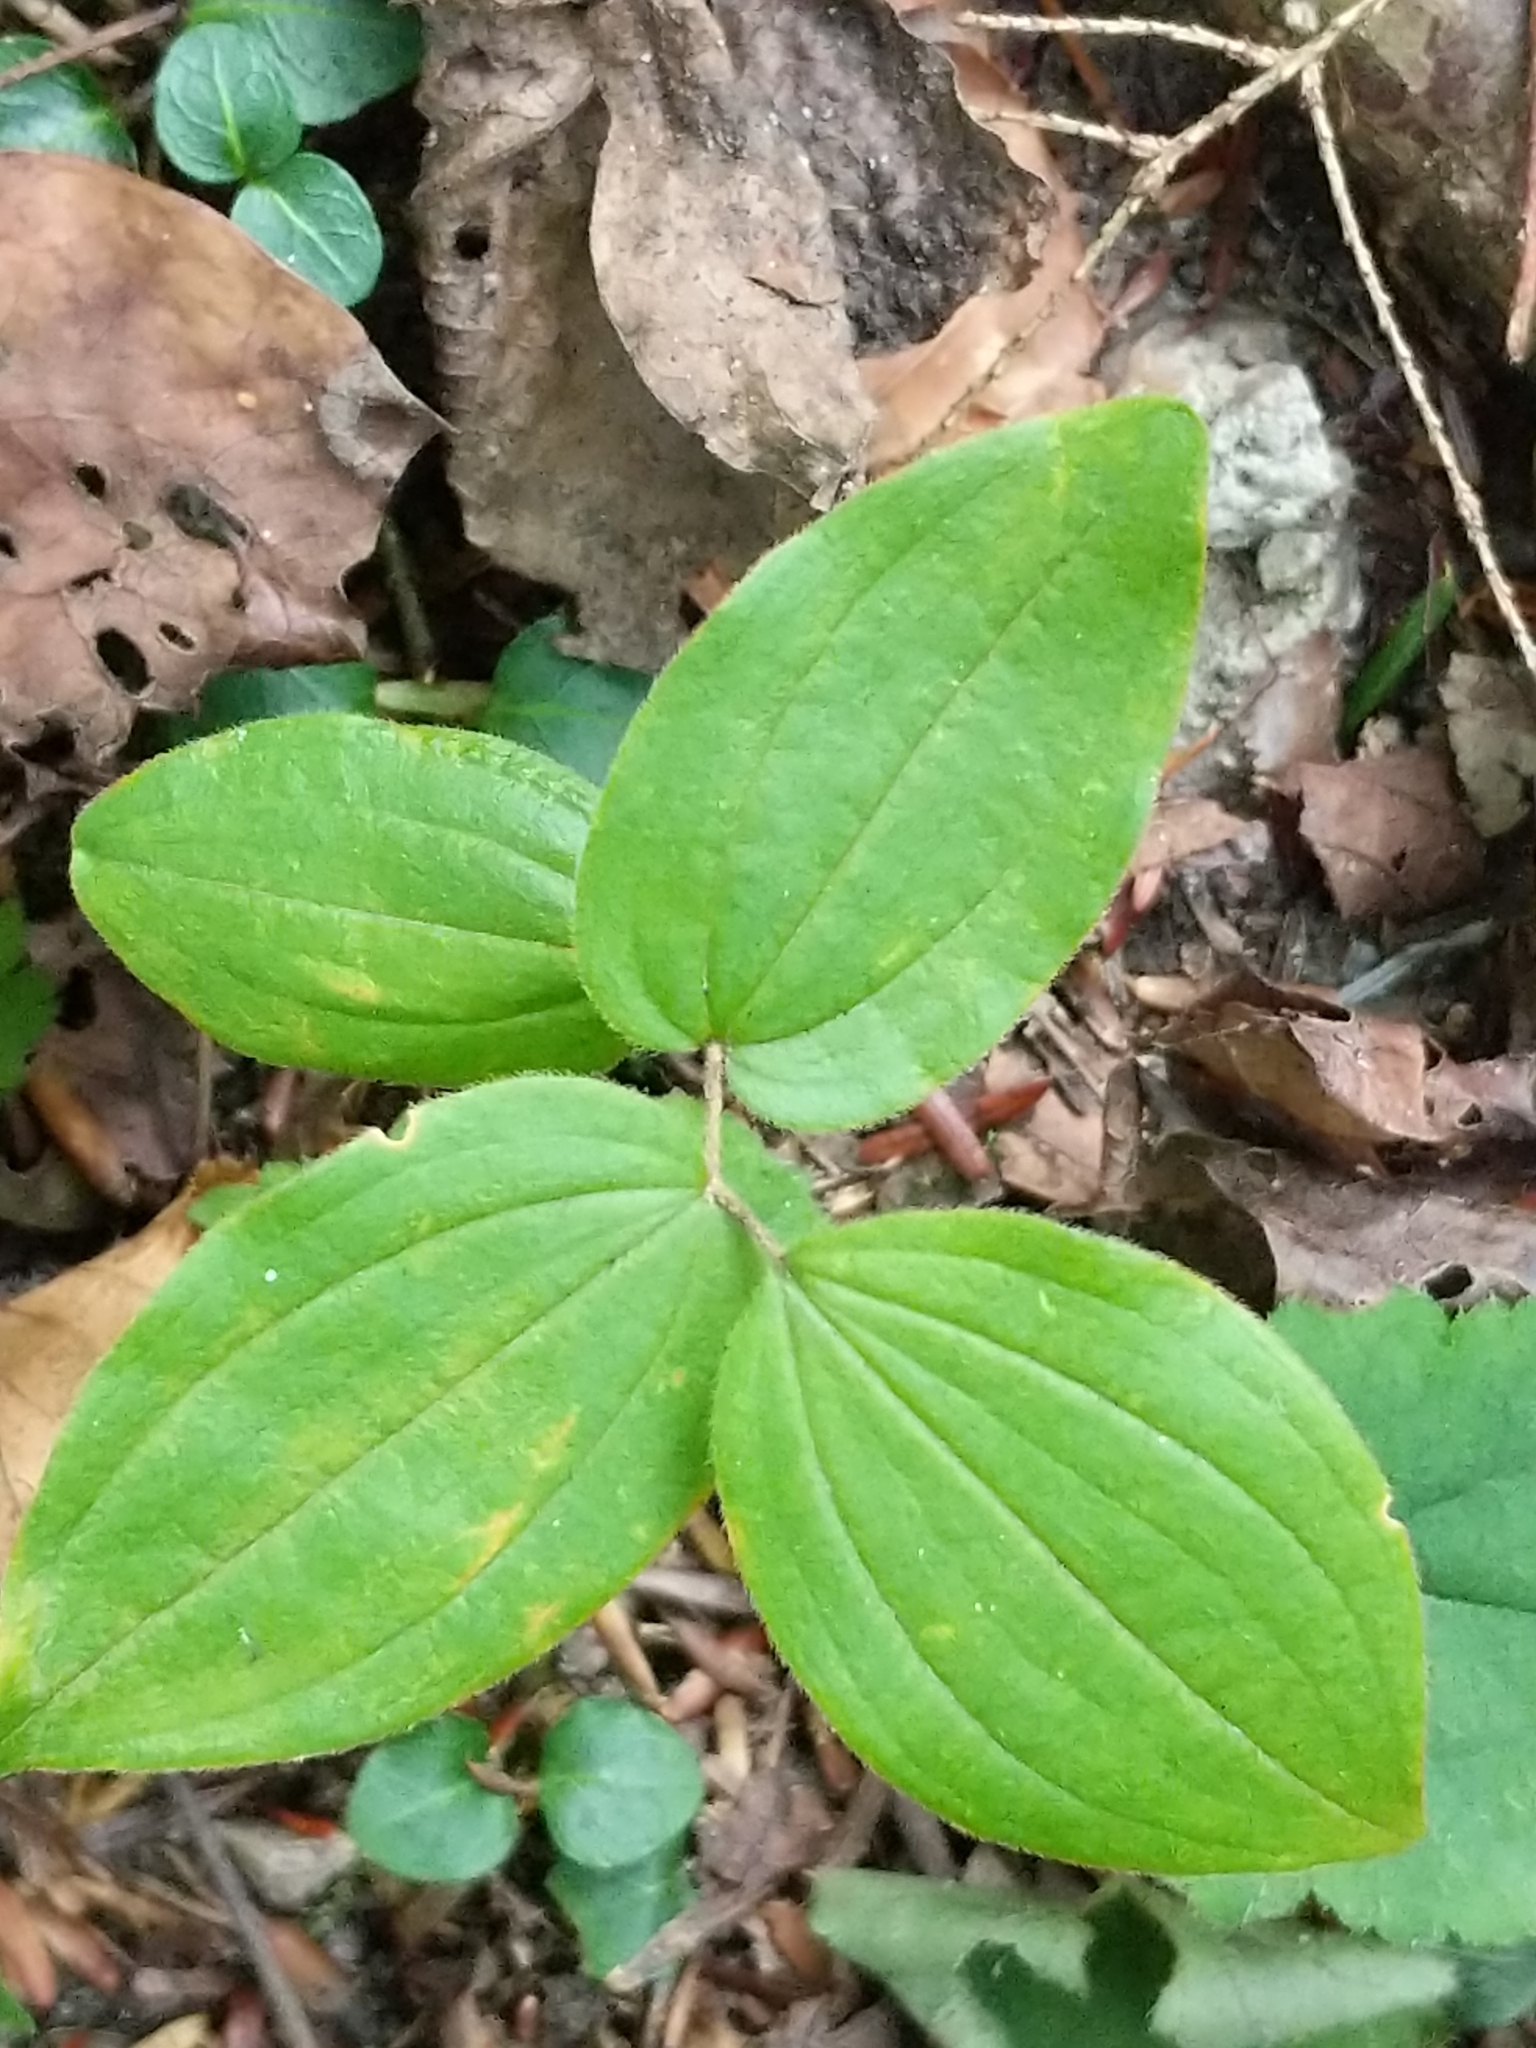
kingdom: Plantae
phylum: Tracheophyta
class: Liliopsida
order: Liliales
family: Liliaceae
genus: Prosartes
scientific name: Prosartes lanuginosa
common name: Hairy mandarin
